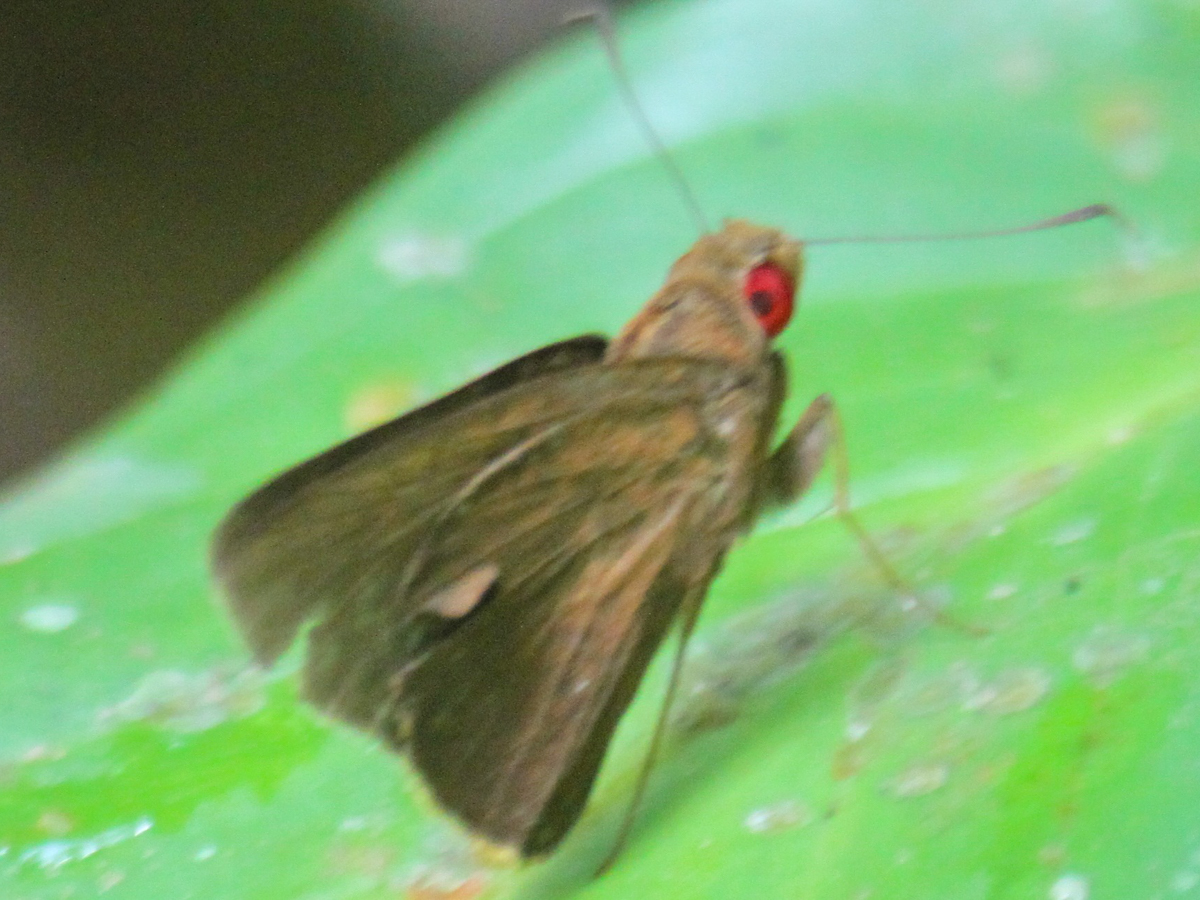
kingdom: Animalia
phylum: Arthropoda
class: Insecta
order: Lepidoptera
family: Hesperiidae
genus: Matapa
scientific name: Matapa druna
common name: Grey-brand redeye
